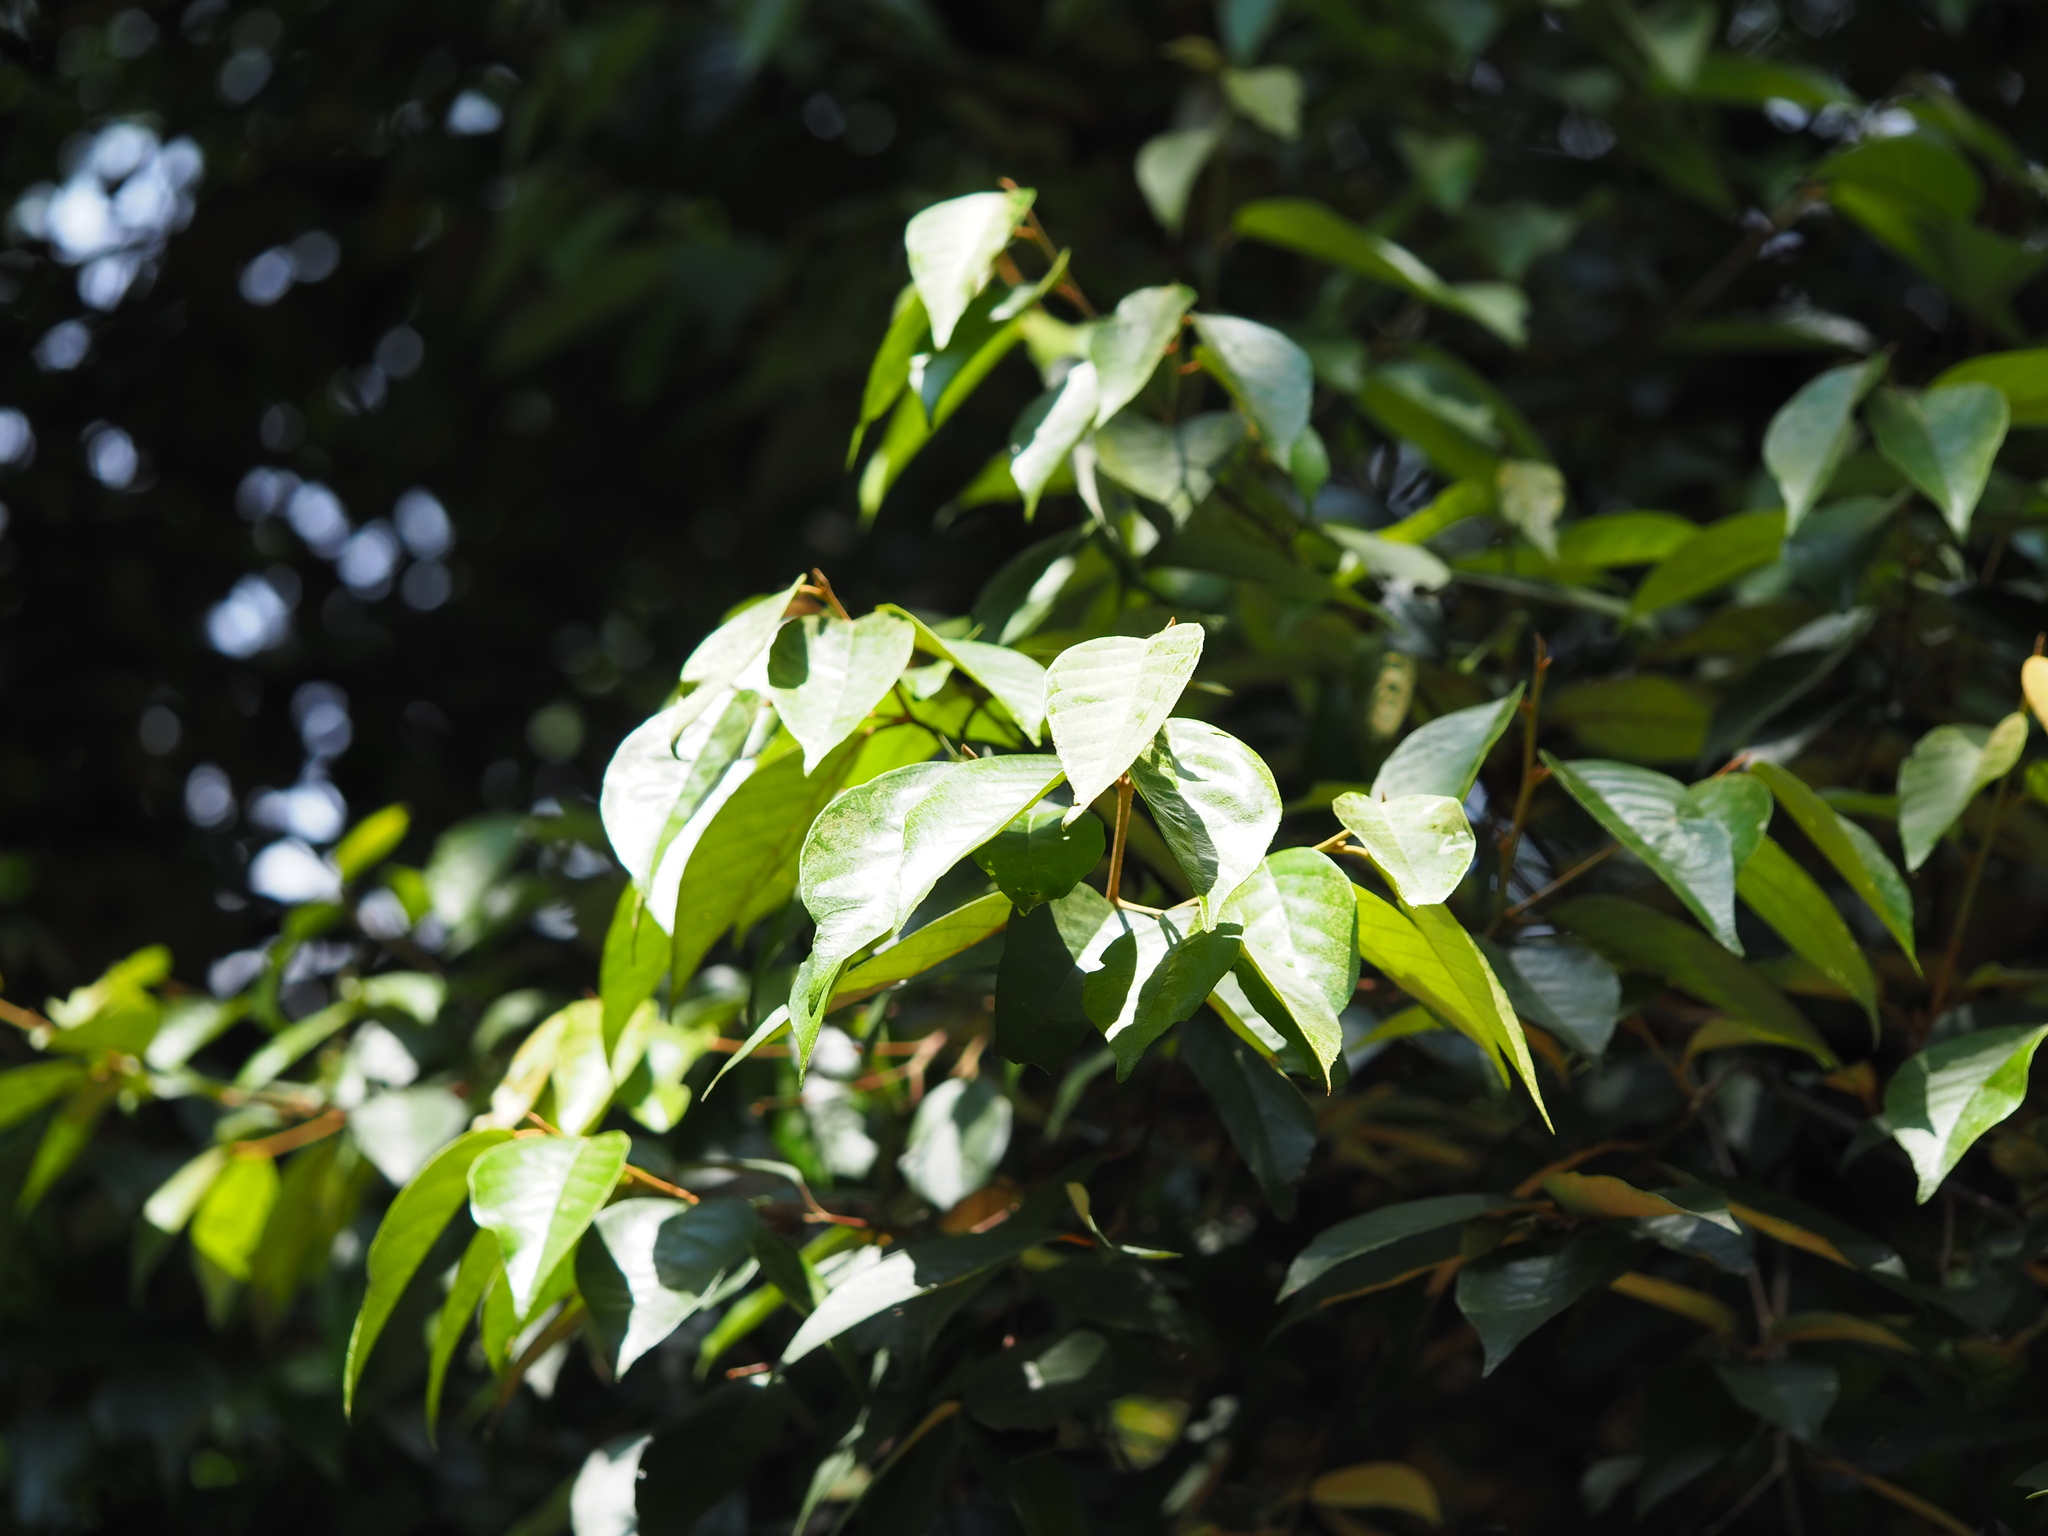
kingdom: Plantae
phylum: Tracheophyta
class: Magnoliopsida
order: Ericales
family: Styracaceae
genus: Styrax
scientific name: Styrax suberifolius
